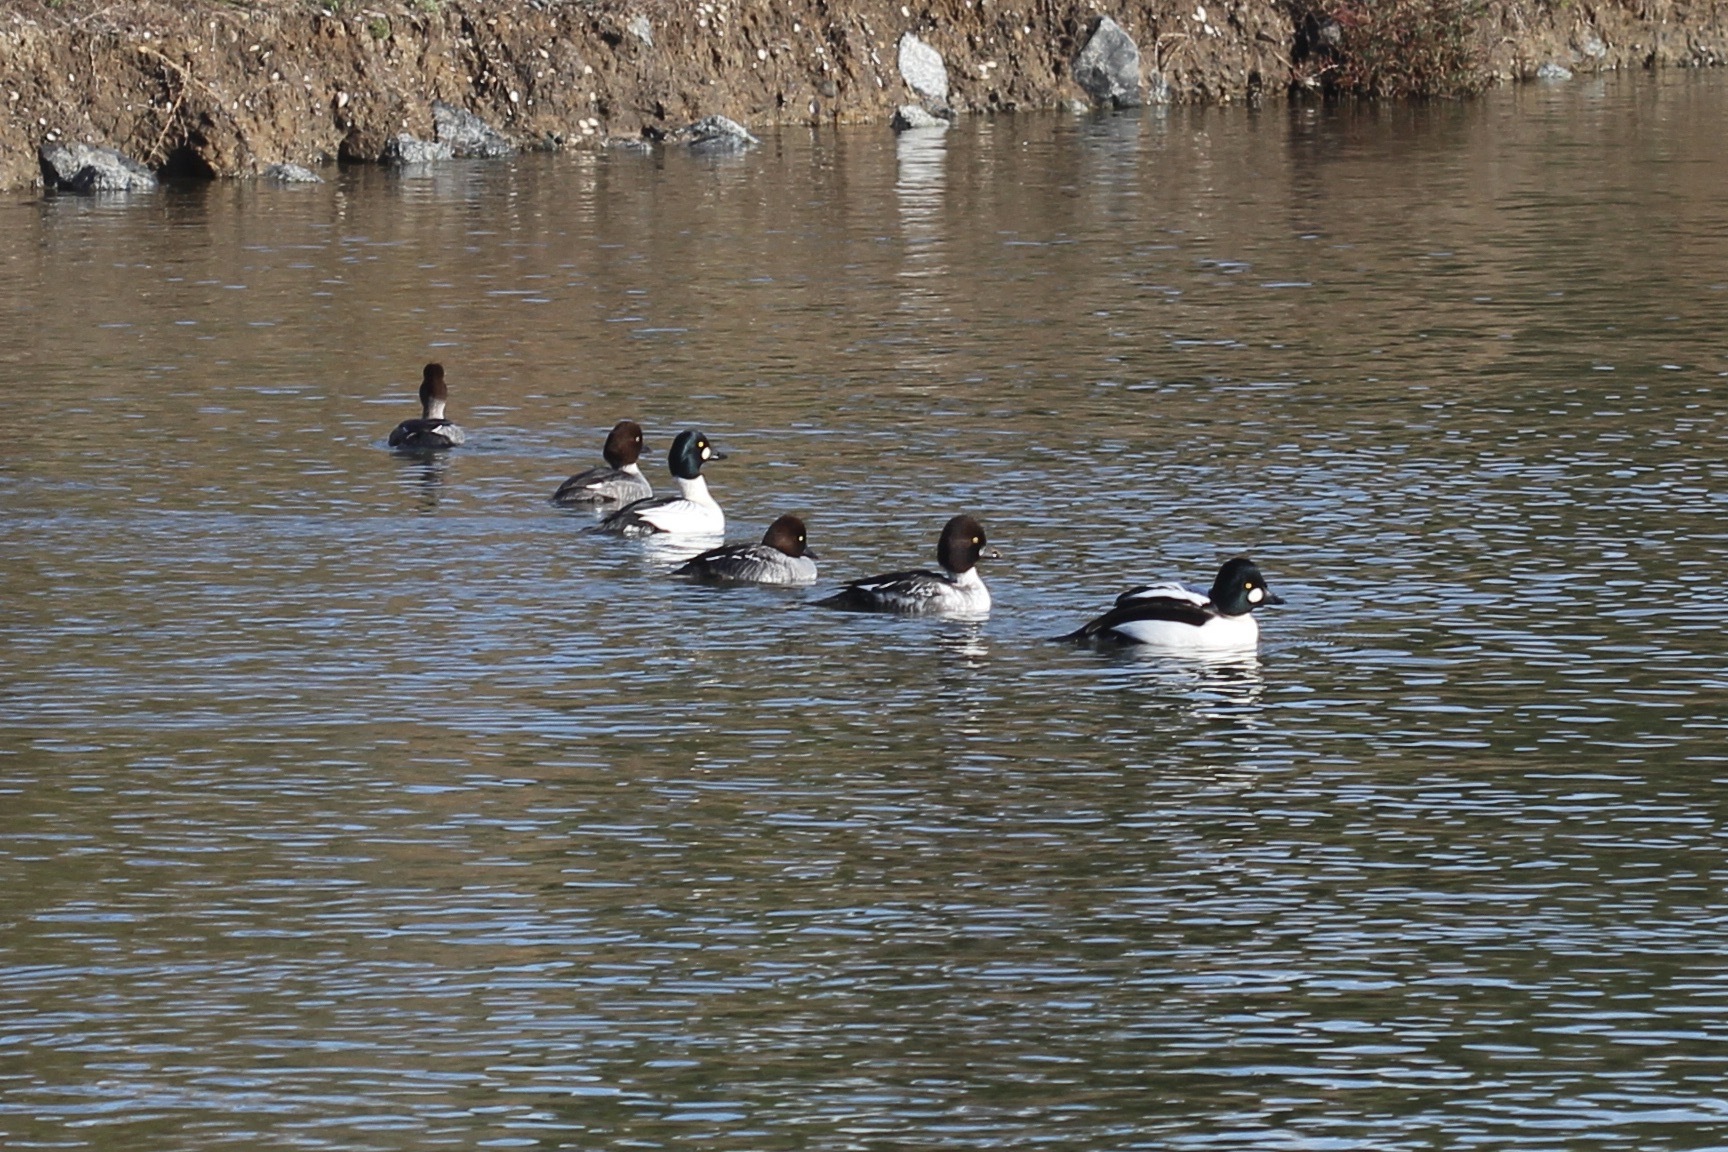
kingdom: Animalia
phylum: Chordata
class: Aves
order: Anseriformes
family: Anatidae
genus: Bucephala
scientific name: Bucephala clangula
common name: Common goldeneye
